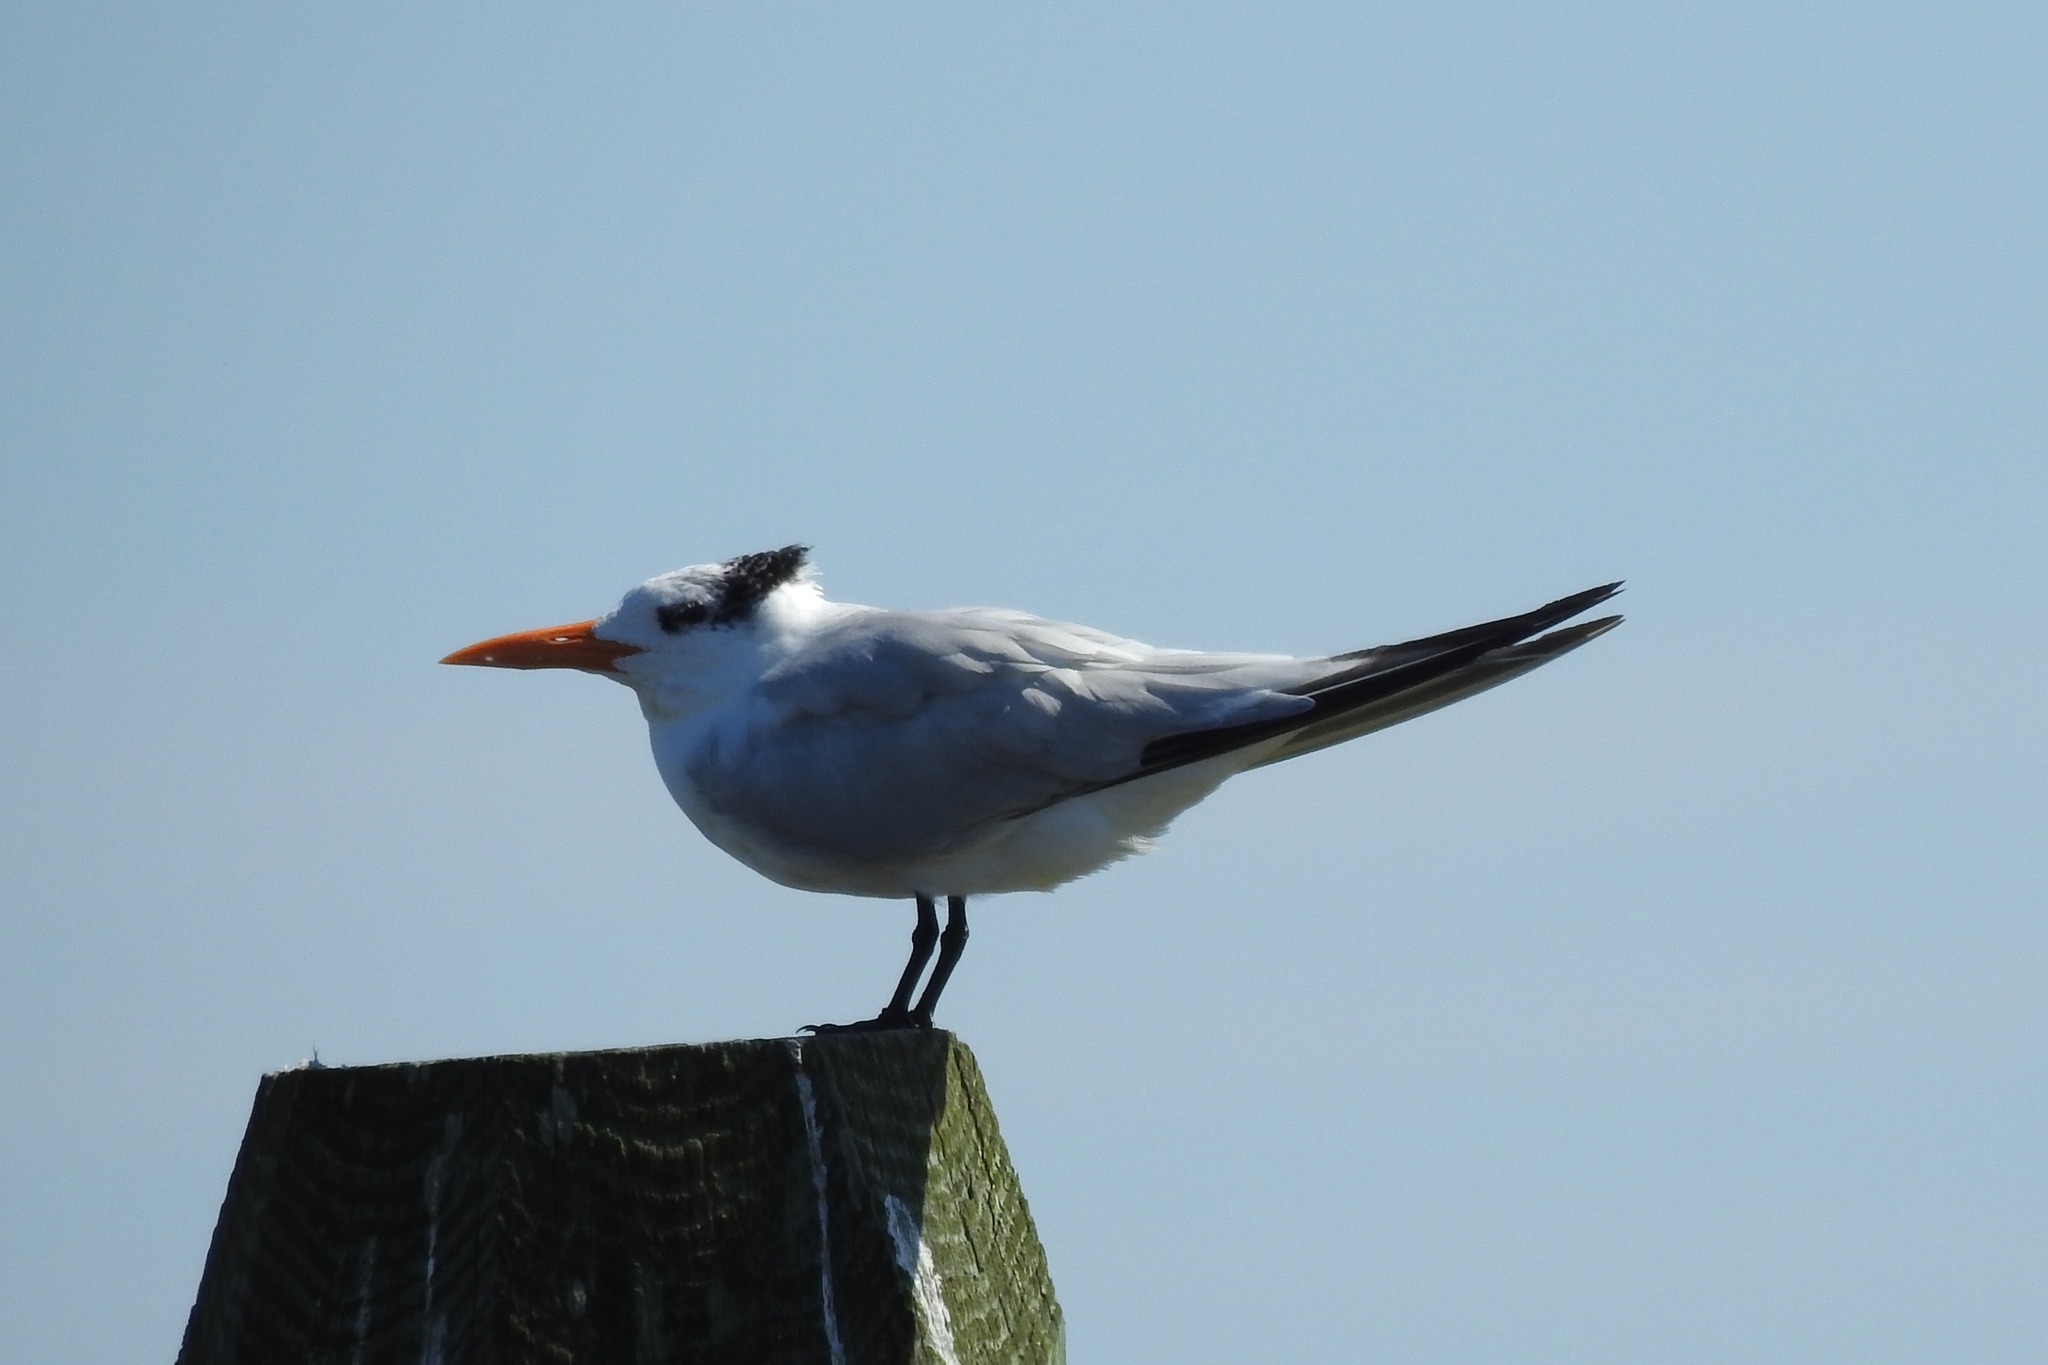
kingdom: Animalia
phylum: Chordata
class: Aves
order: Charadriiformes
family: Laridae
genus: Thalasseus
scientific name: Thalasseus maximus
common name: Royal tern
